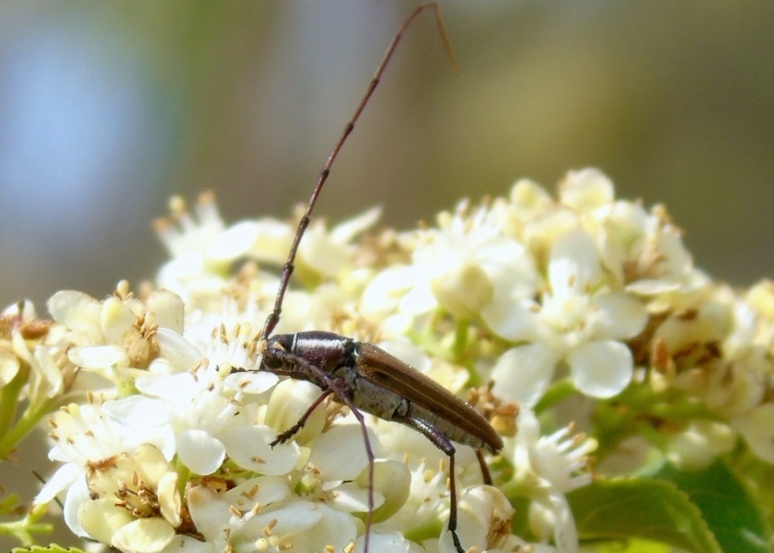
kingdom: Animalia
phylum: Arthropoda
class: Insecta
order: Coleoptera
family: Cerambycidae
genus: Sphaenothecus
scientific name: Sphaenothecus maccartyi
